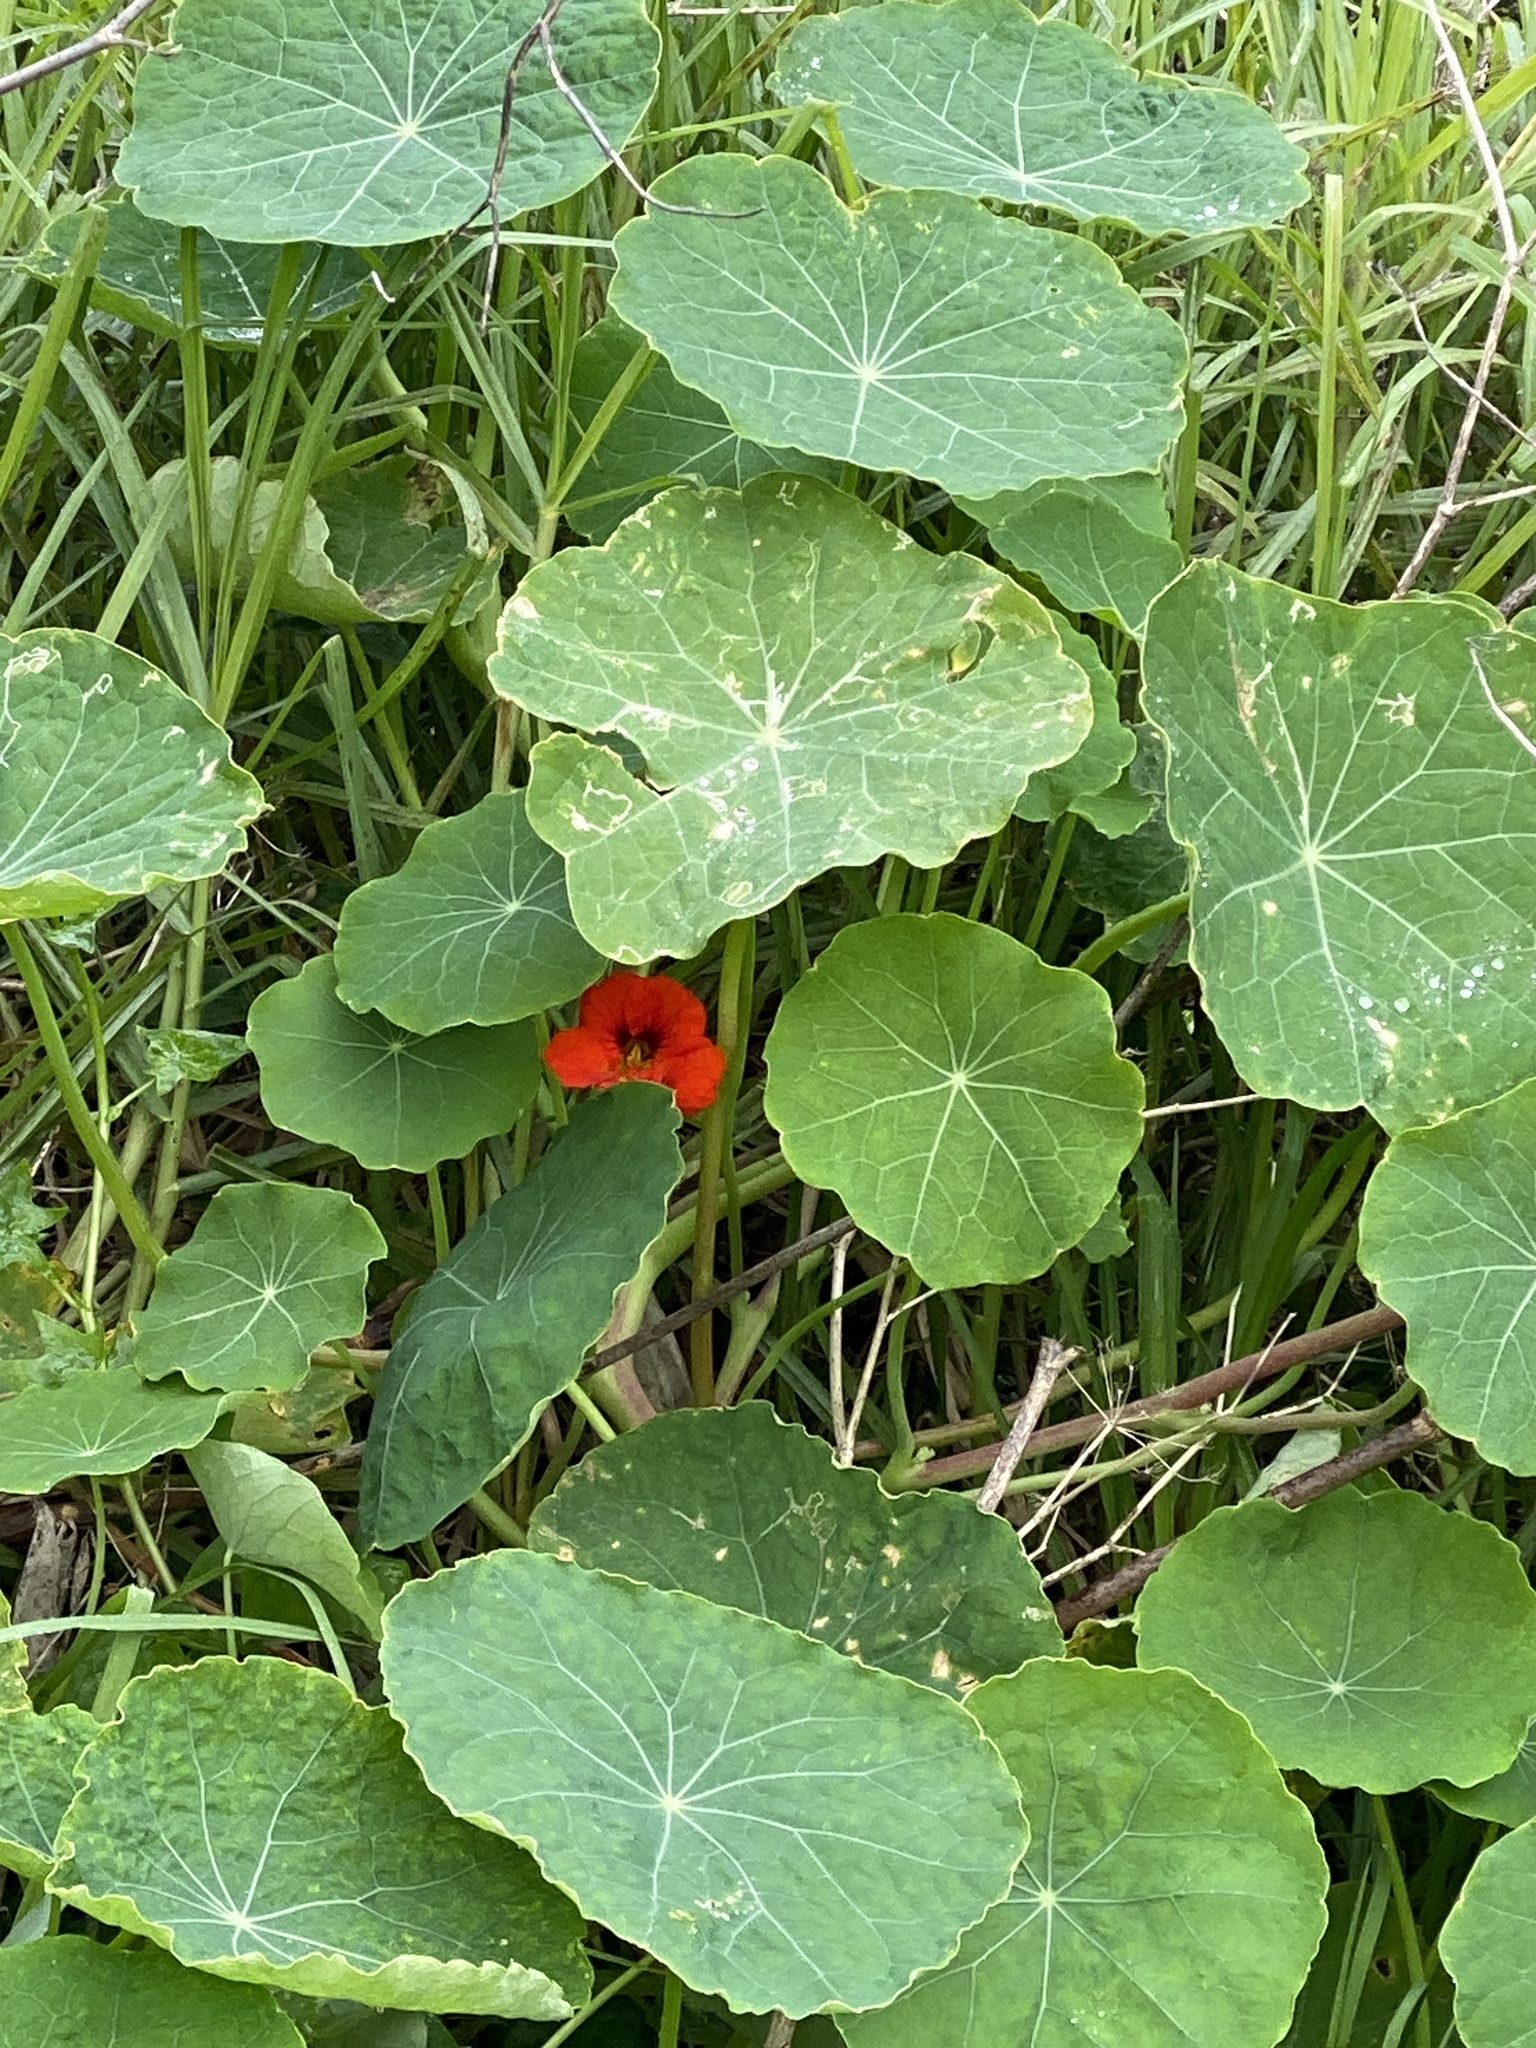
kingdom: Plantae
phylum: Tracheophyta
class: Magnoliopsida
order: Brassicales
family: Tropaeolaceae
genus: Tropaeolum
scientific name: Tropaeolum majus
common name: Nasturtium
